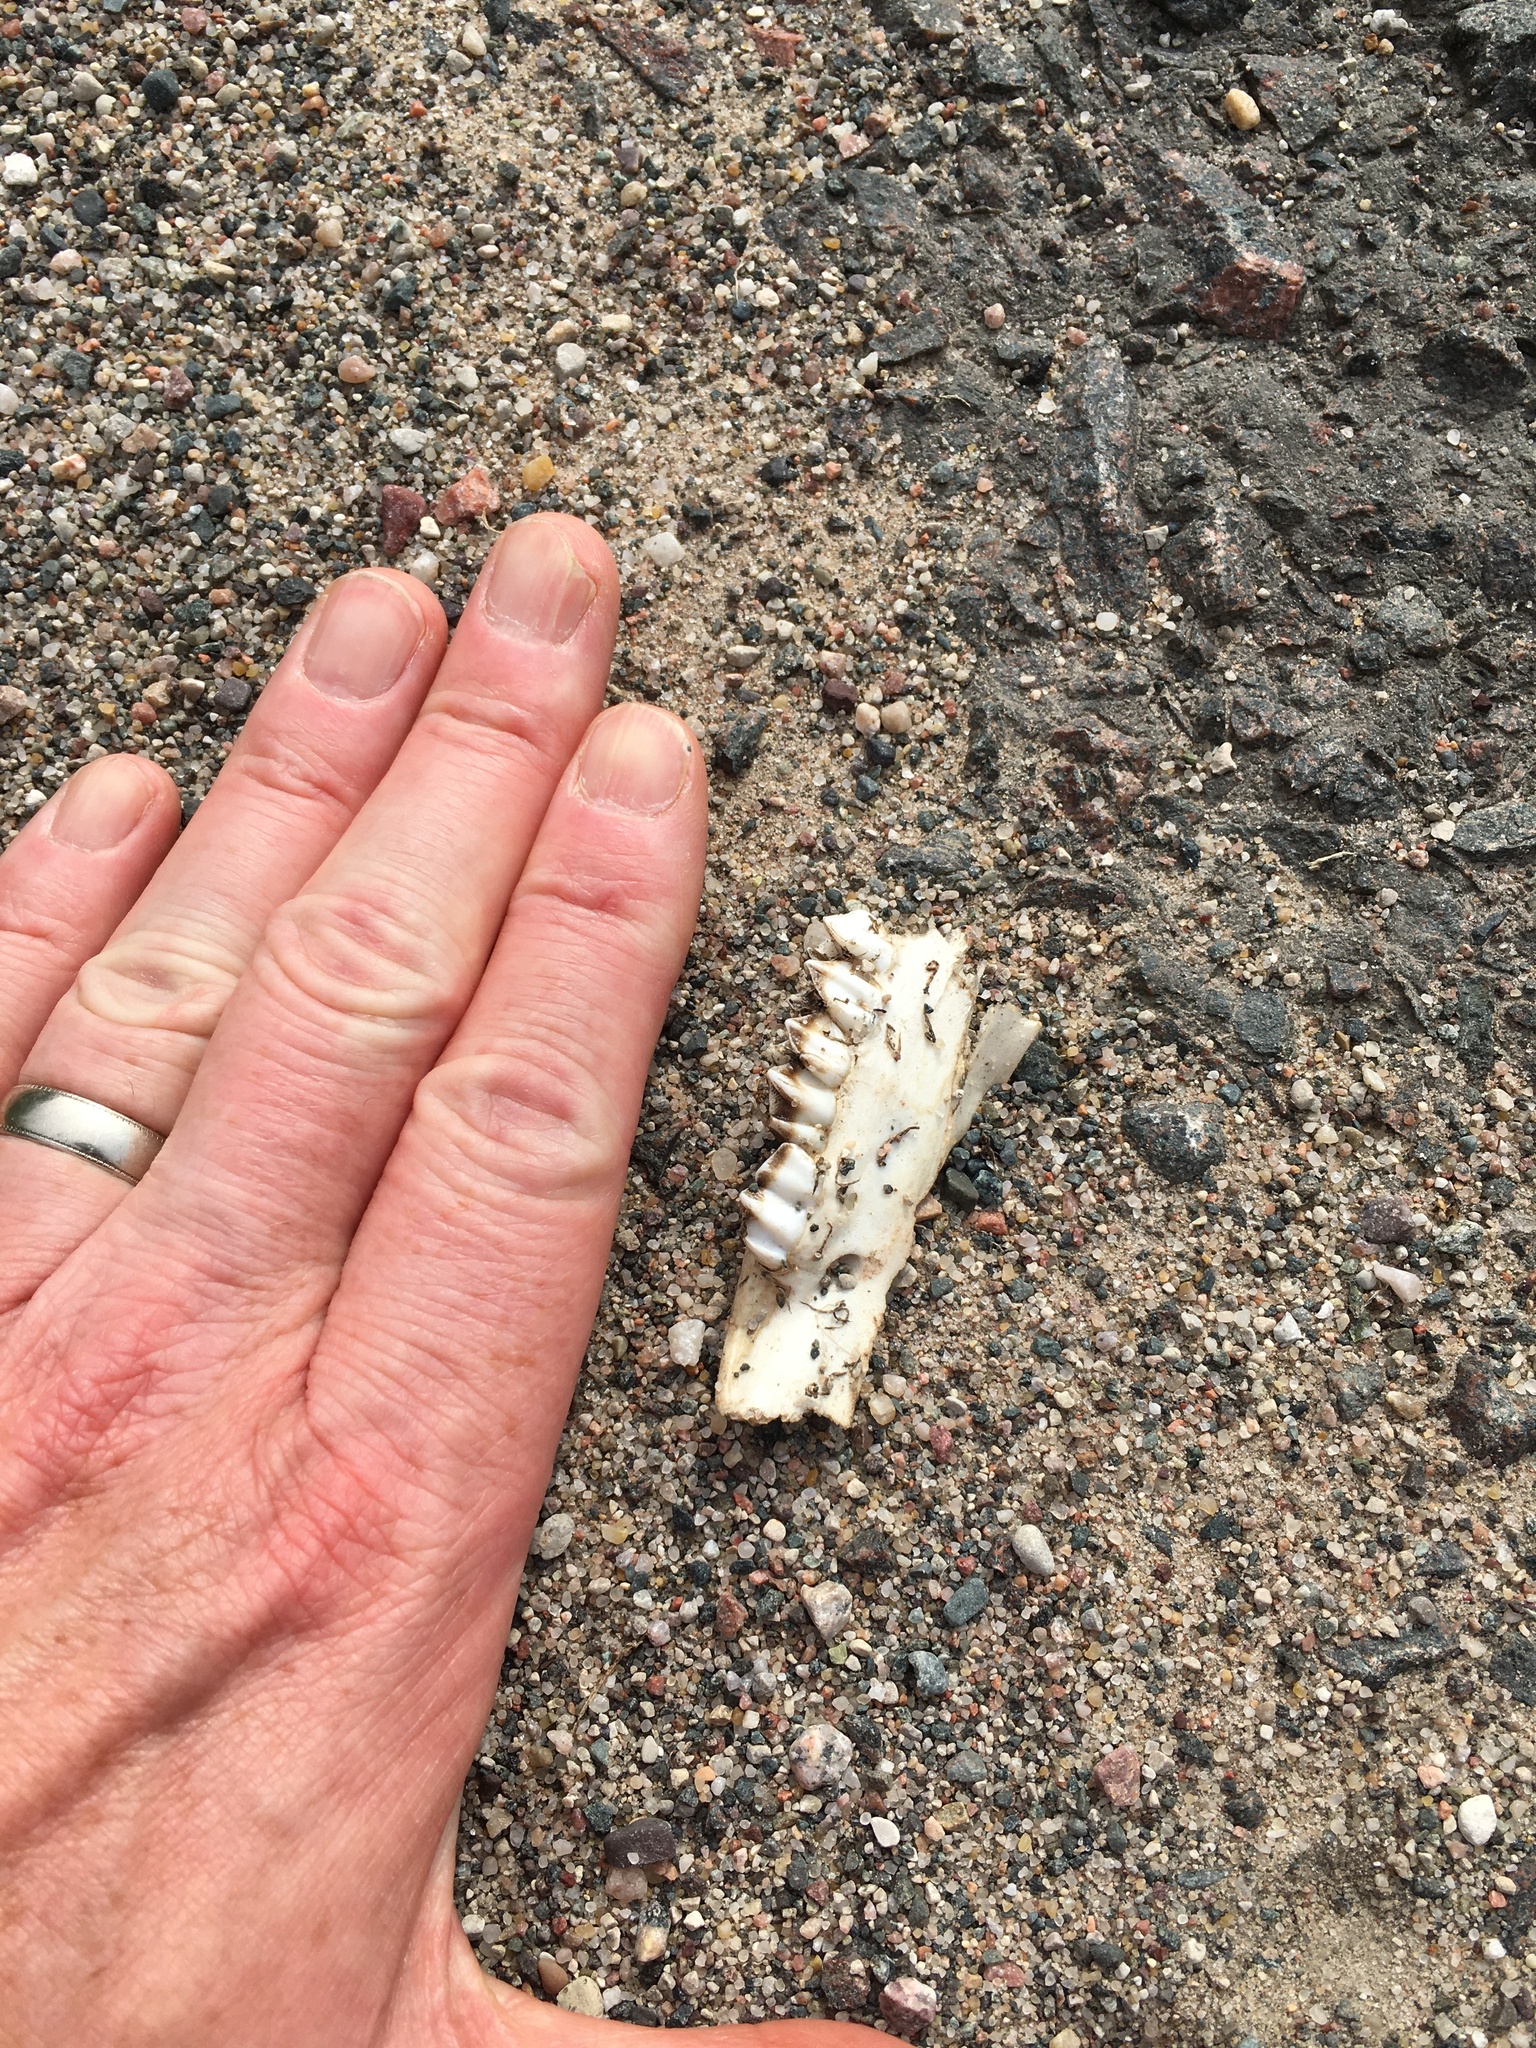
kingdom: Animalia
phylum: Chordata
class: Mammalia
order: Artiodactyla
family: Cervidae
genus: Odocoileus
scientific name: Odocoileus virginianus
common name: White-tailed deer
